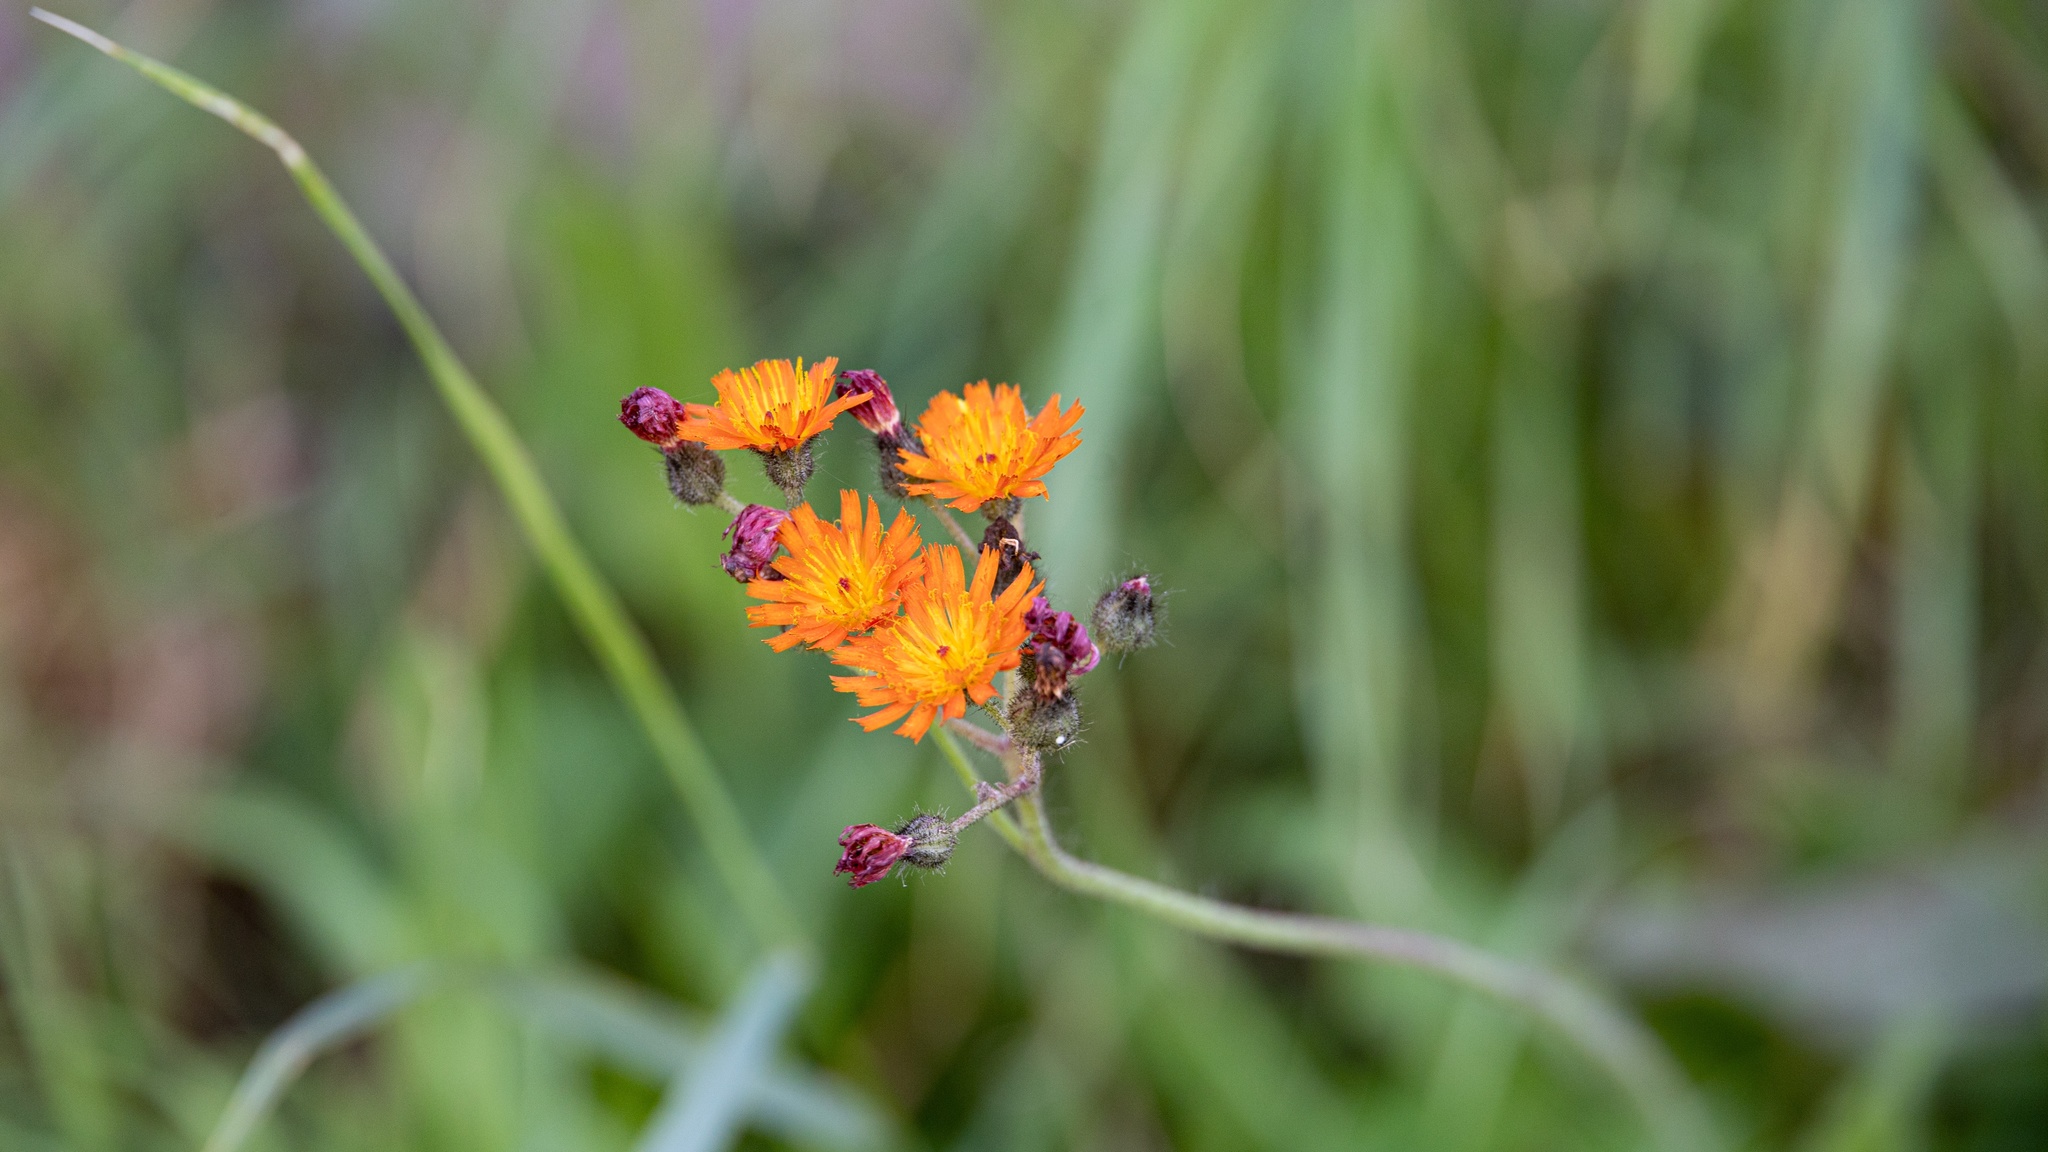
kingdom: Plantae
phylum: Tracheophyta
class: Magnoliopsida
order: Asterales
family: Asteraceae
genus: Pilosella
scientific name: Pilosella aurantiaca
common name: Fox-and-cubs
